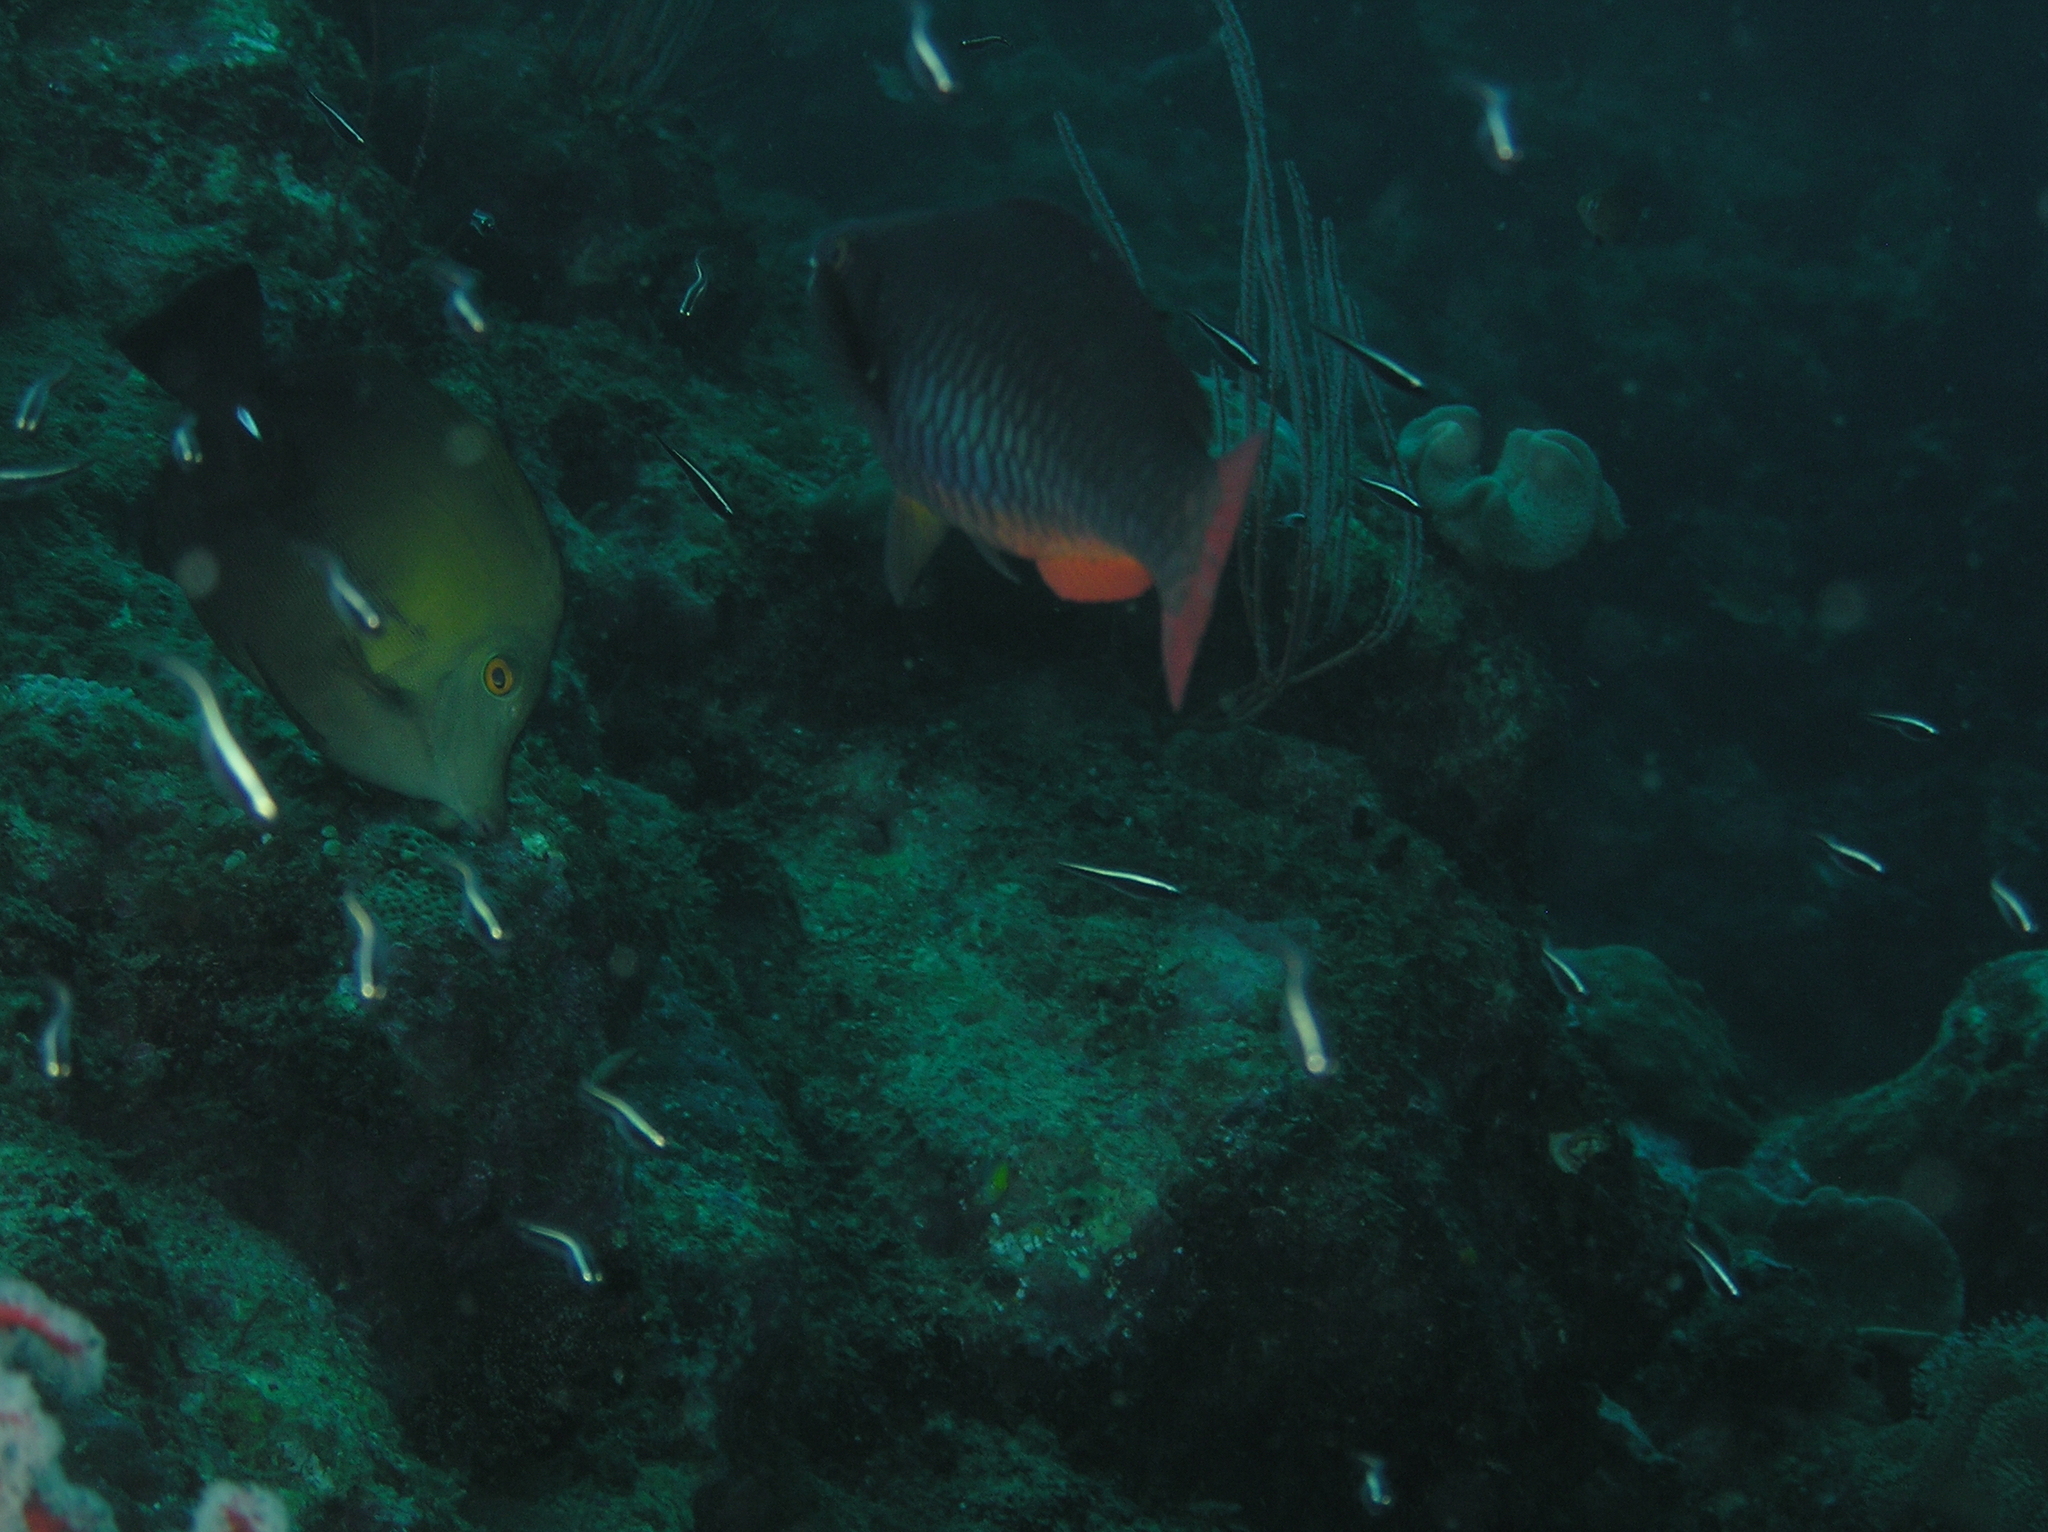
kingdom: Animalia
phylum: Chordata
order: Perciformes
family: Scaridae
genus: Scarus
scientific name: Scarus tricolor
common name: Tricolour parrotfish
